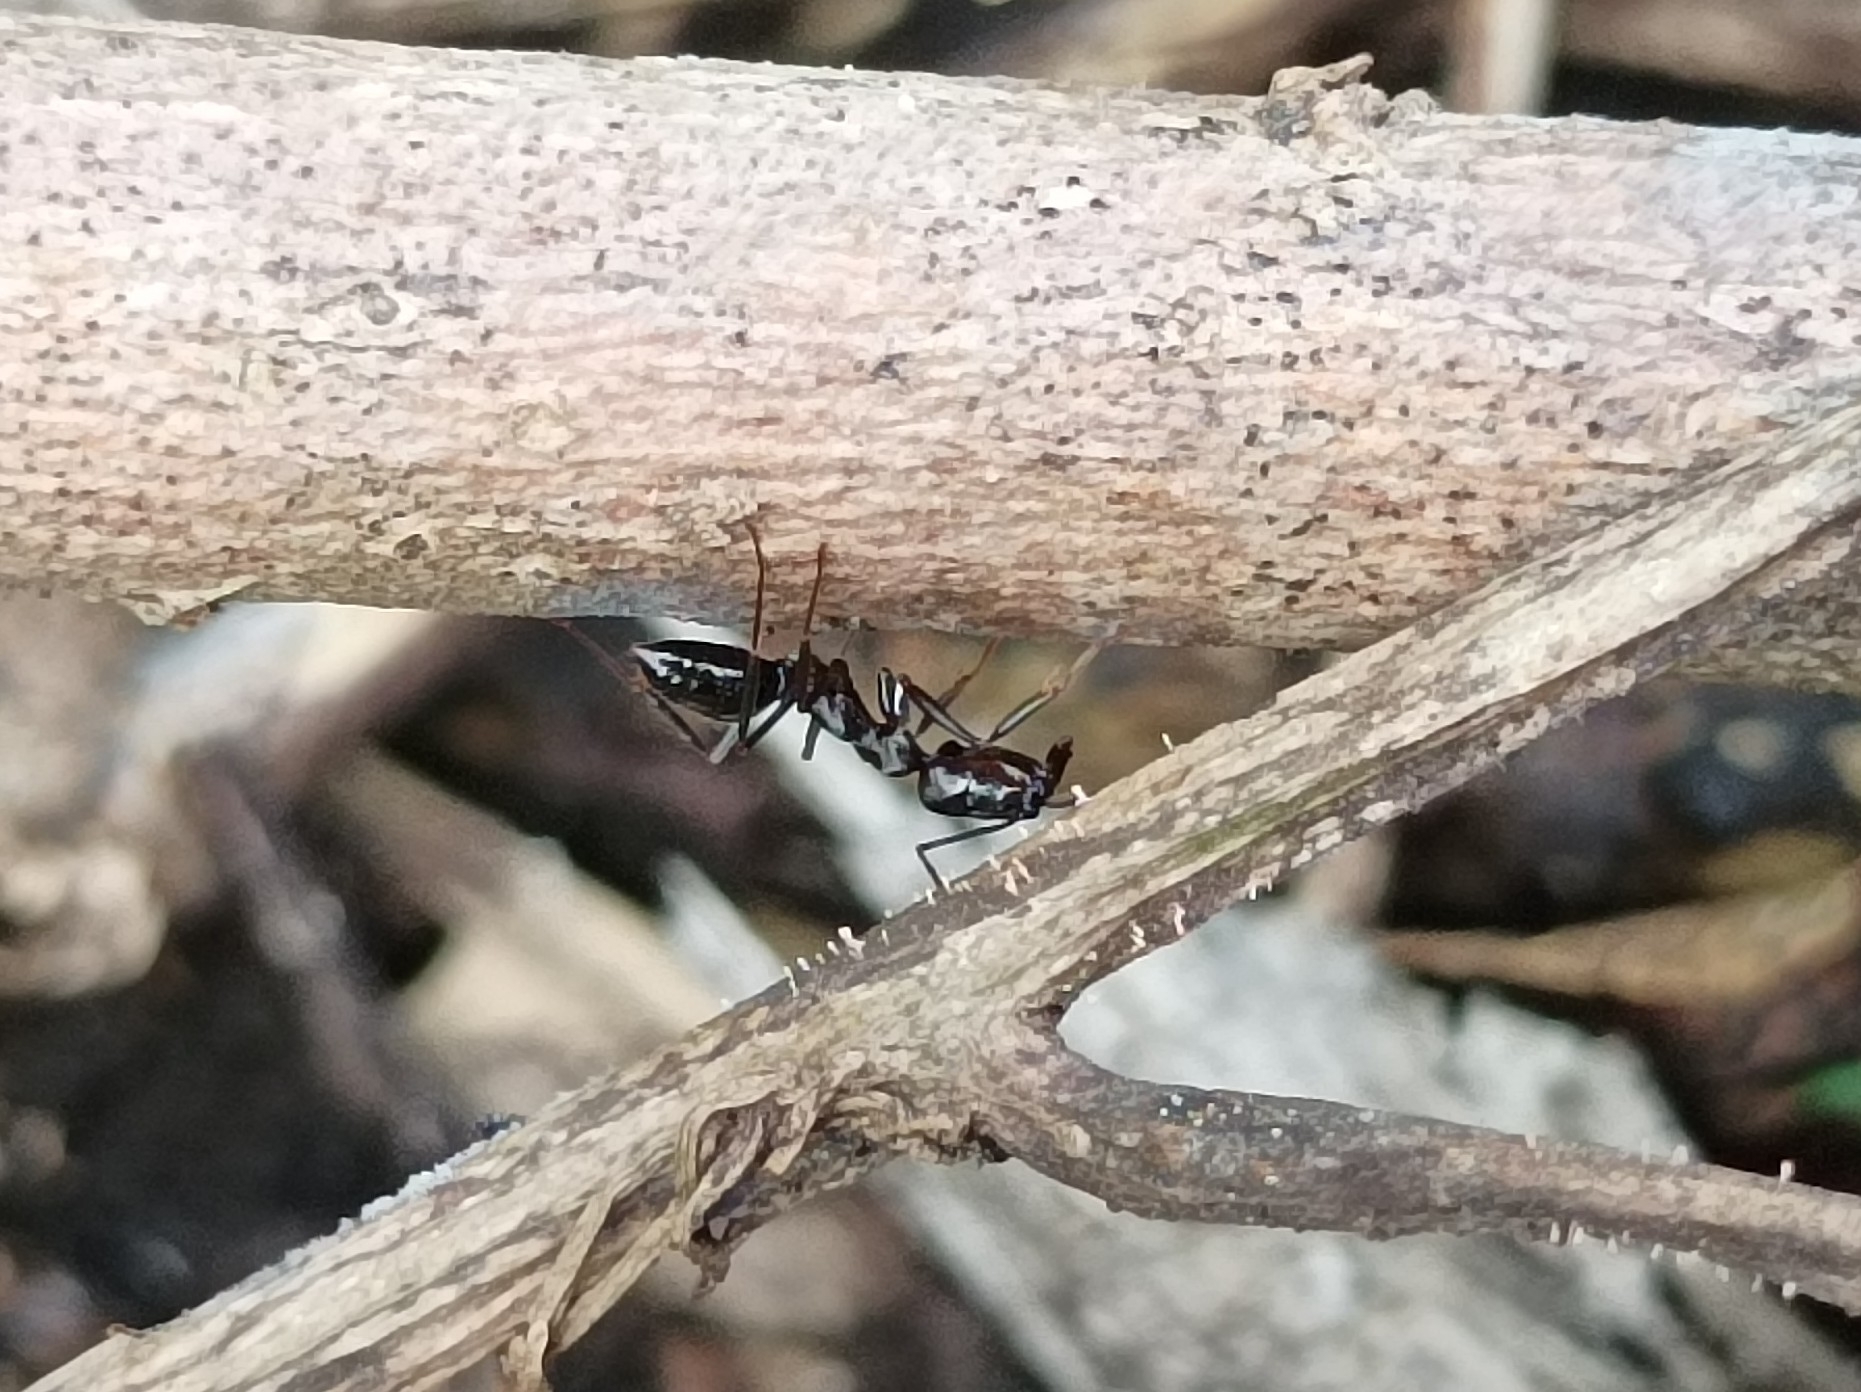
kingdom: Animalia
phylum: Arthropoda
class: Insecta
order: Hymenoptera
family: Formicidae
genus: Odontomachus
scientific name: Odontomachus simillimus
